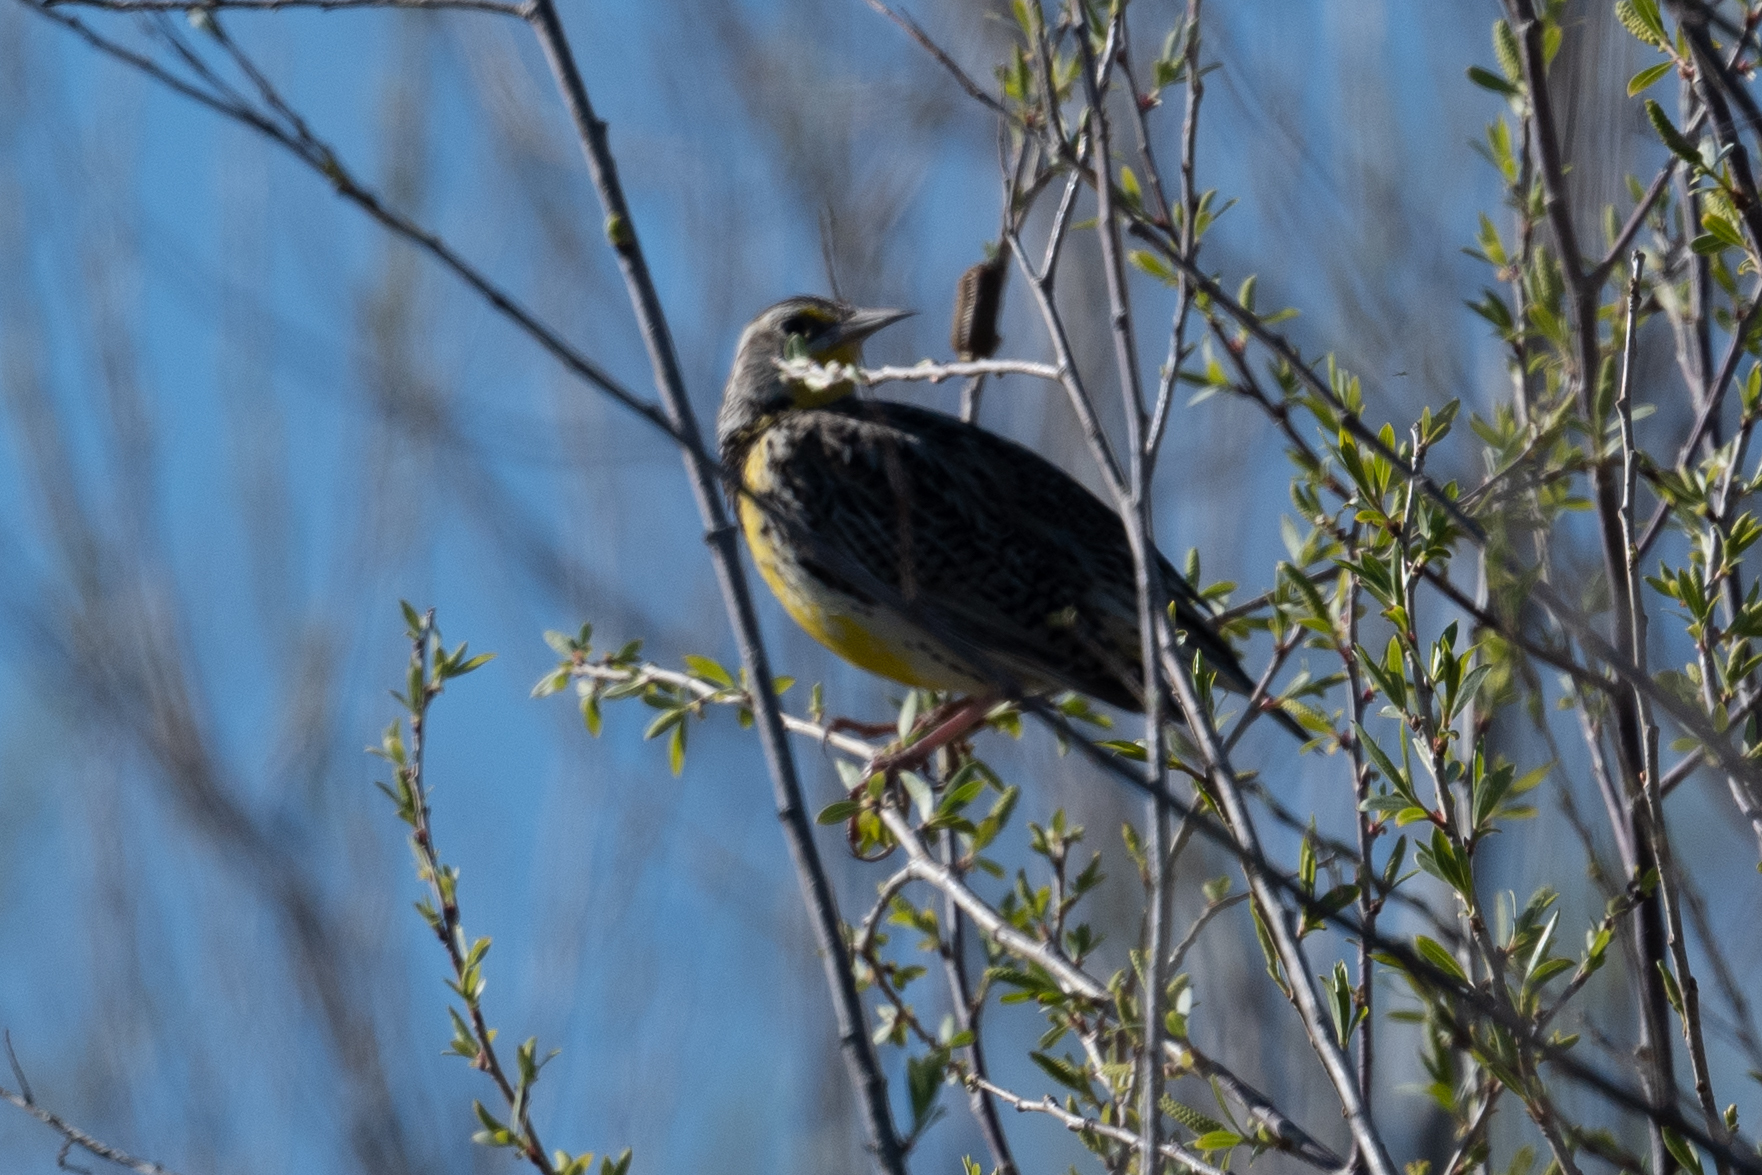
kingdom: Animalia
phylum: Chordata
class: Aves
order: Passeriformes
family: Icteridae
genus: Sturnella
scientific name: Sturnella neglecta
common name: Western meadowlark
